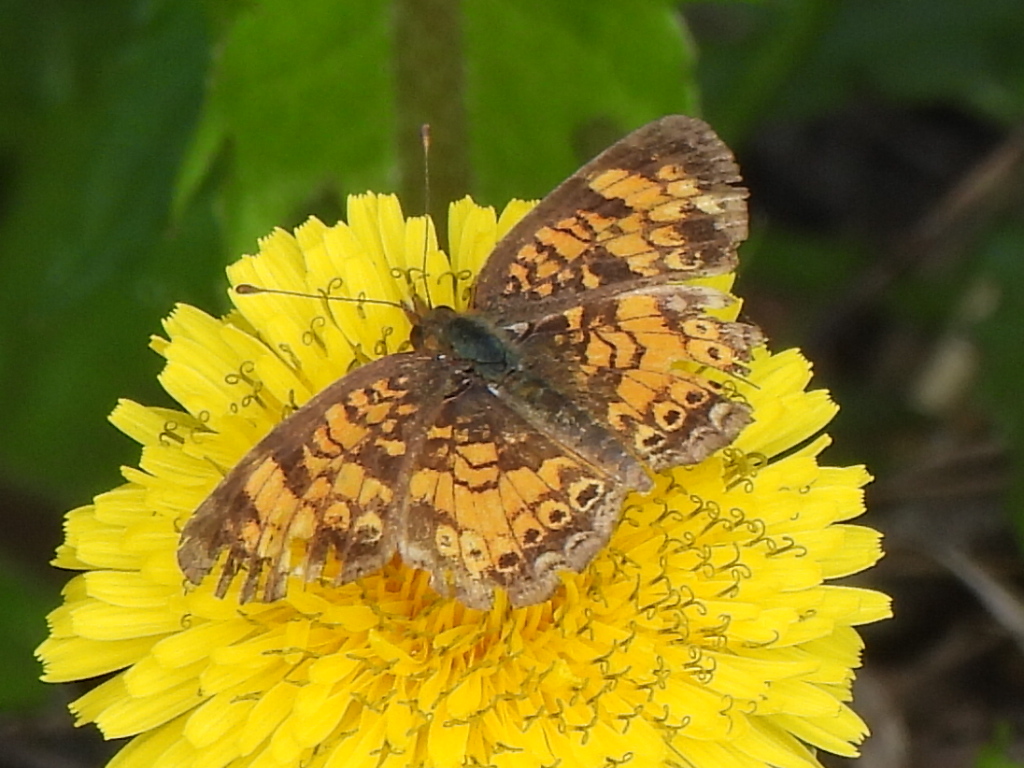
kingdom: Animalia
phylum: Arthropoda
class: Insecta
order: Lepidoptera
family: Nymphalidae
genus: Phyciodes
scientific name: Phyciodes tharos
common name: Pearl crescent
